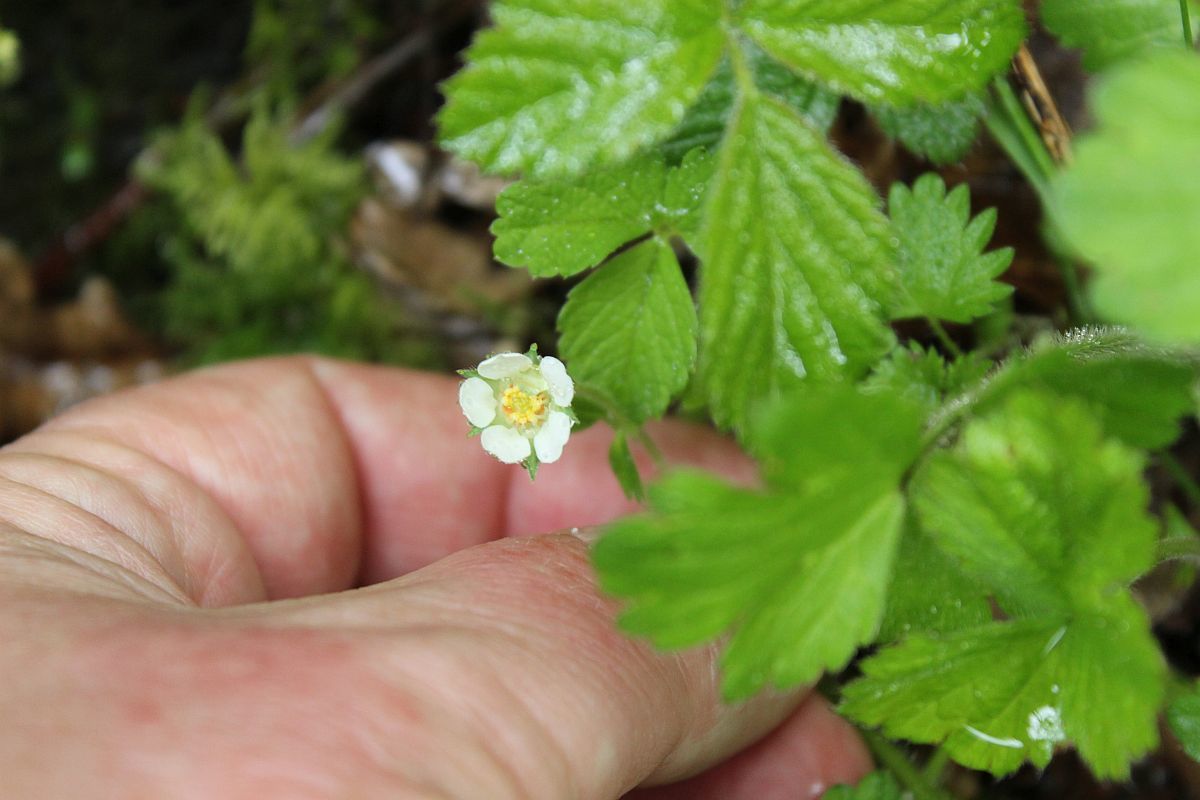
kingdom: Plantae
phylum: Tracheophyta
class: Magnoliopsida
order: Rosales
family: Rosaceae
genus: Potentilla
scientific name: Potentilla sterilis
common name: Barren strawberry
